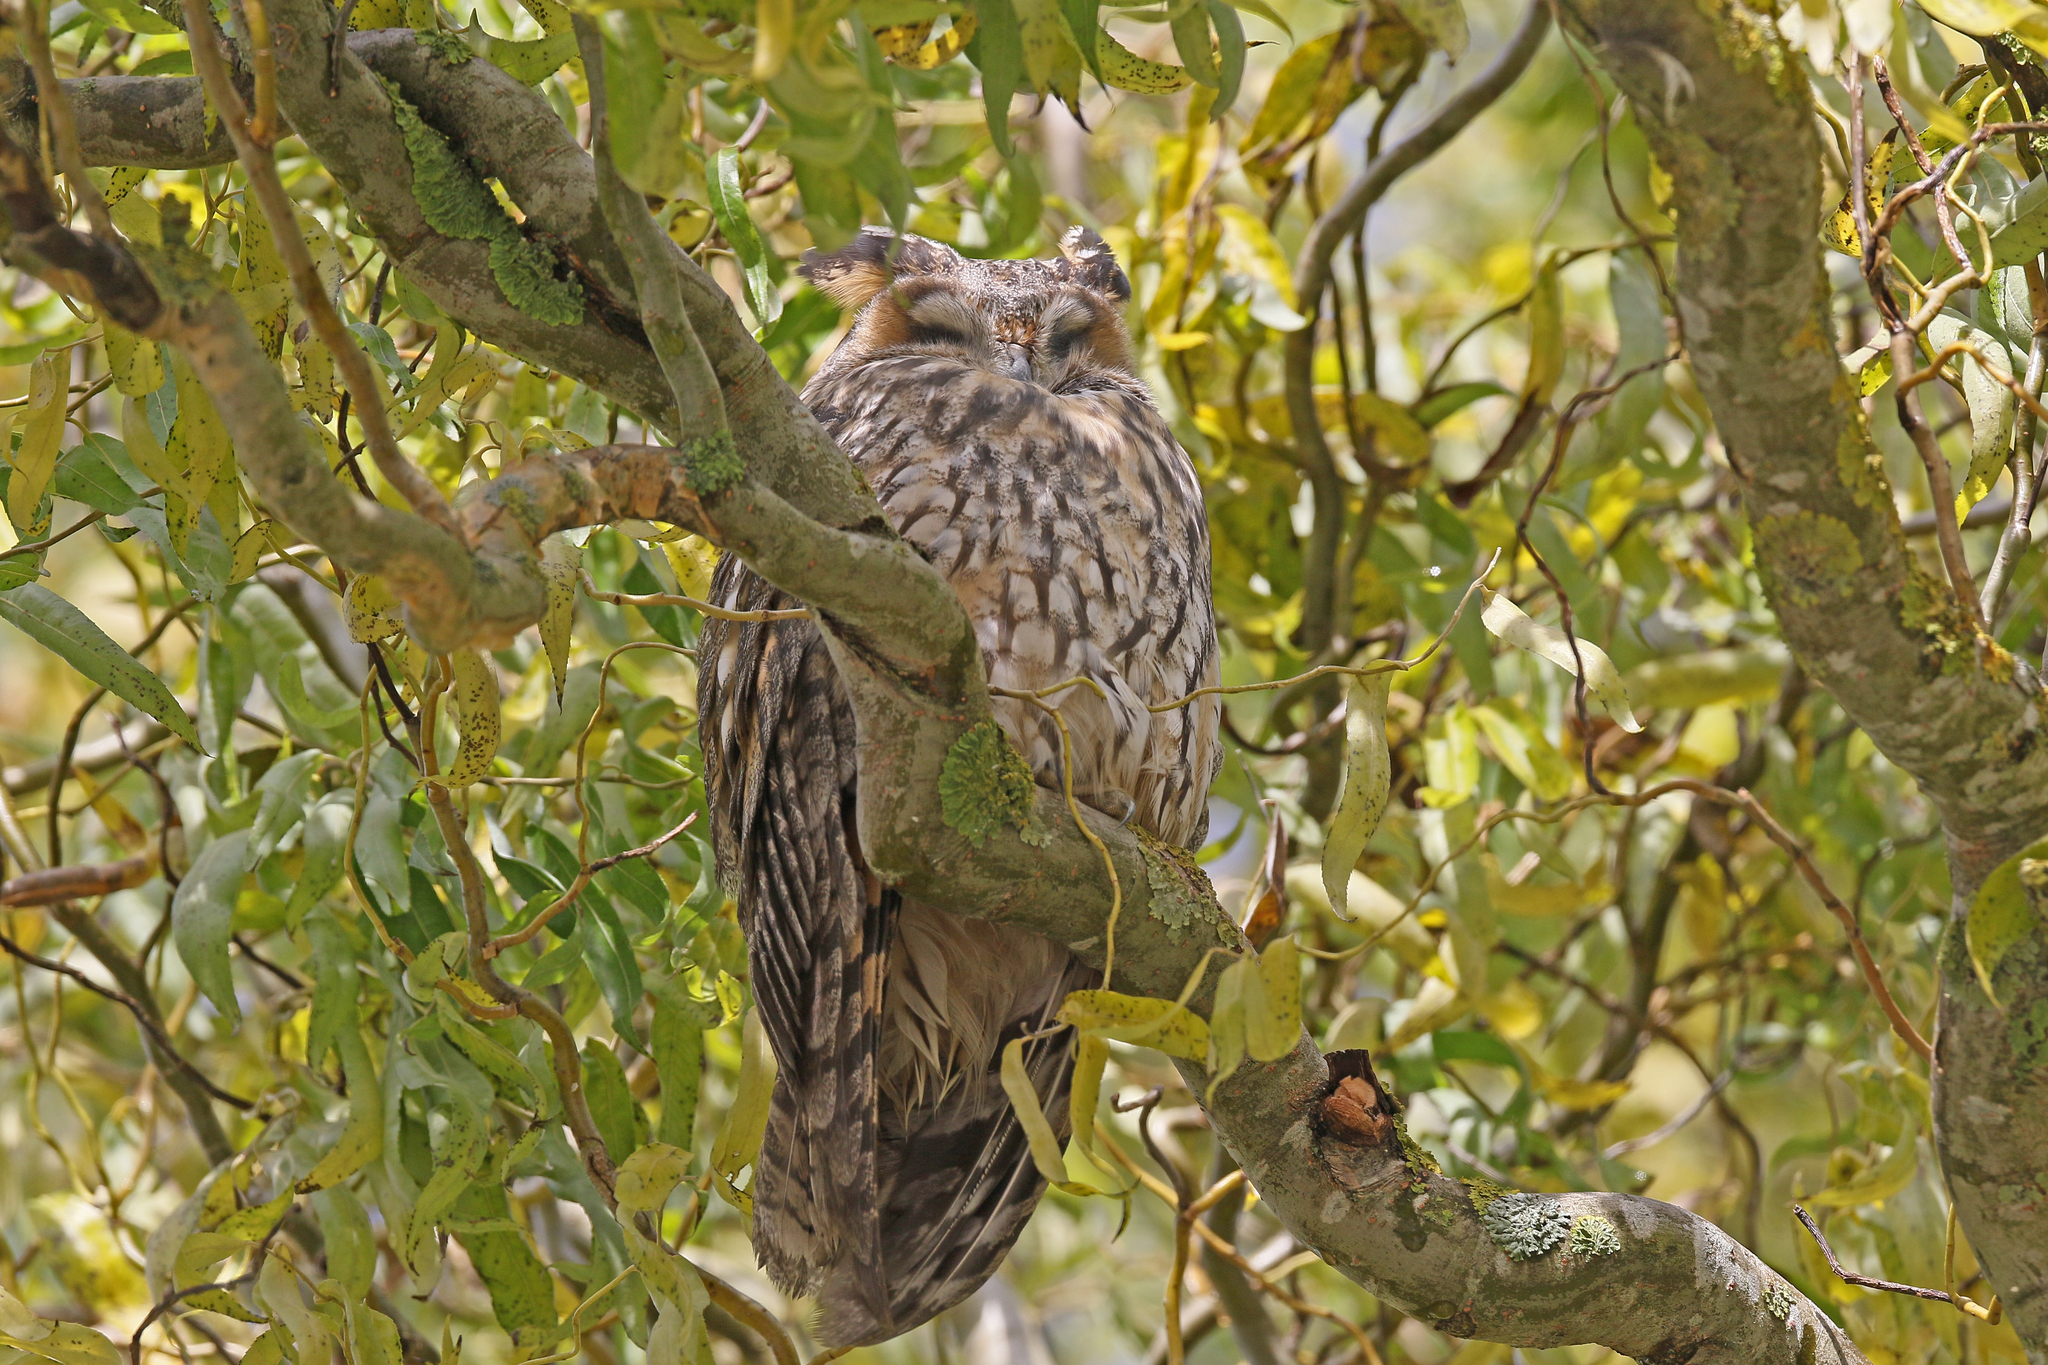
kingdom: Animalia
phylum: Chordata
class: Aves
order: Strigiformes
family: Strigidae
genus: Asio
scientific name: Asio otus
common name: Long-eared owl
